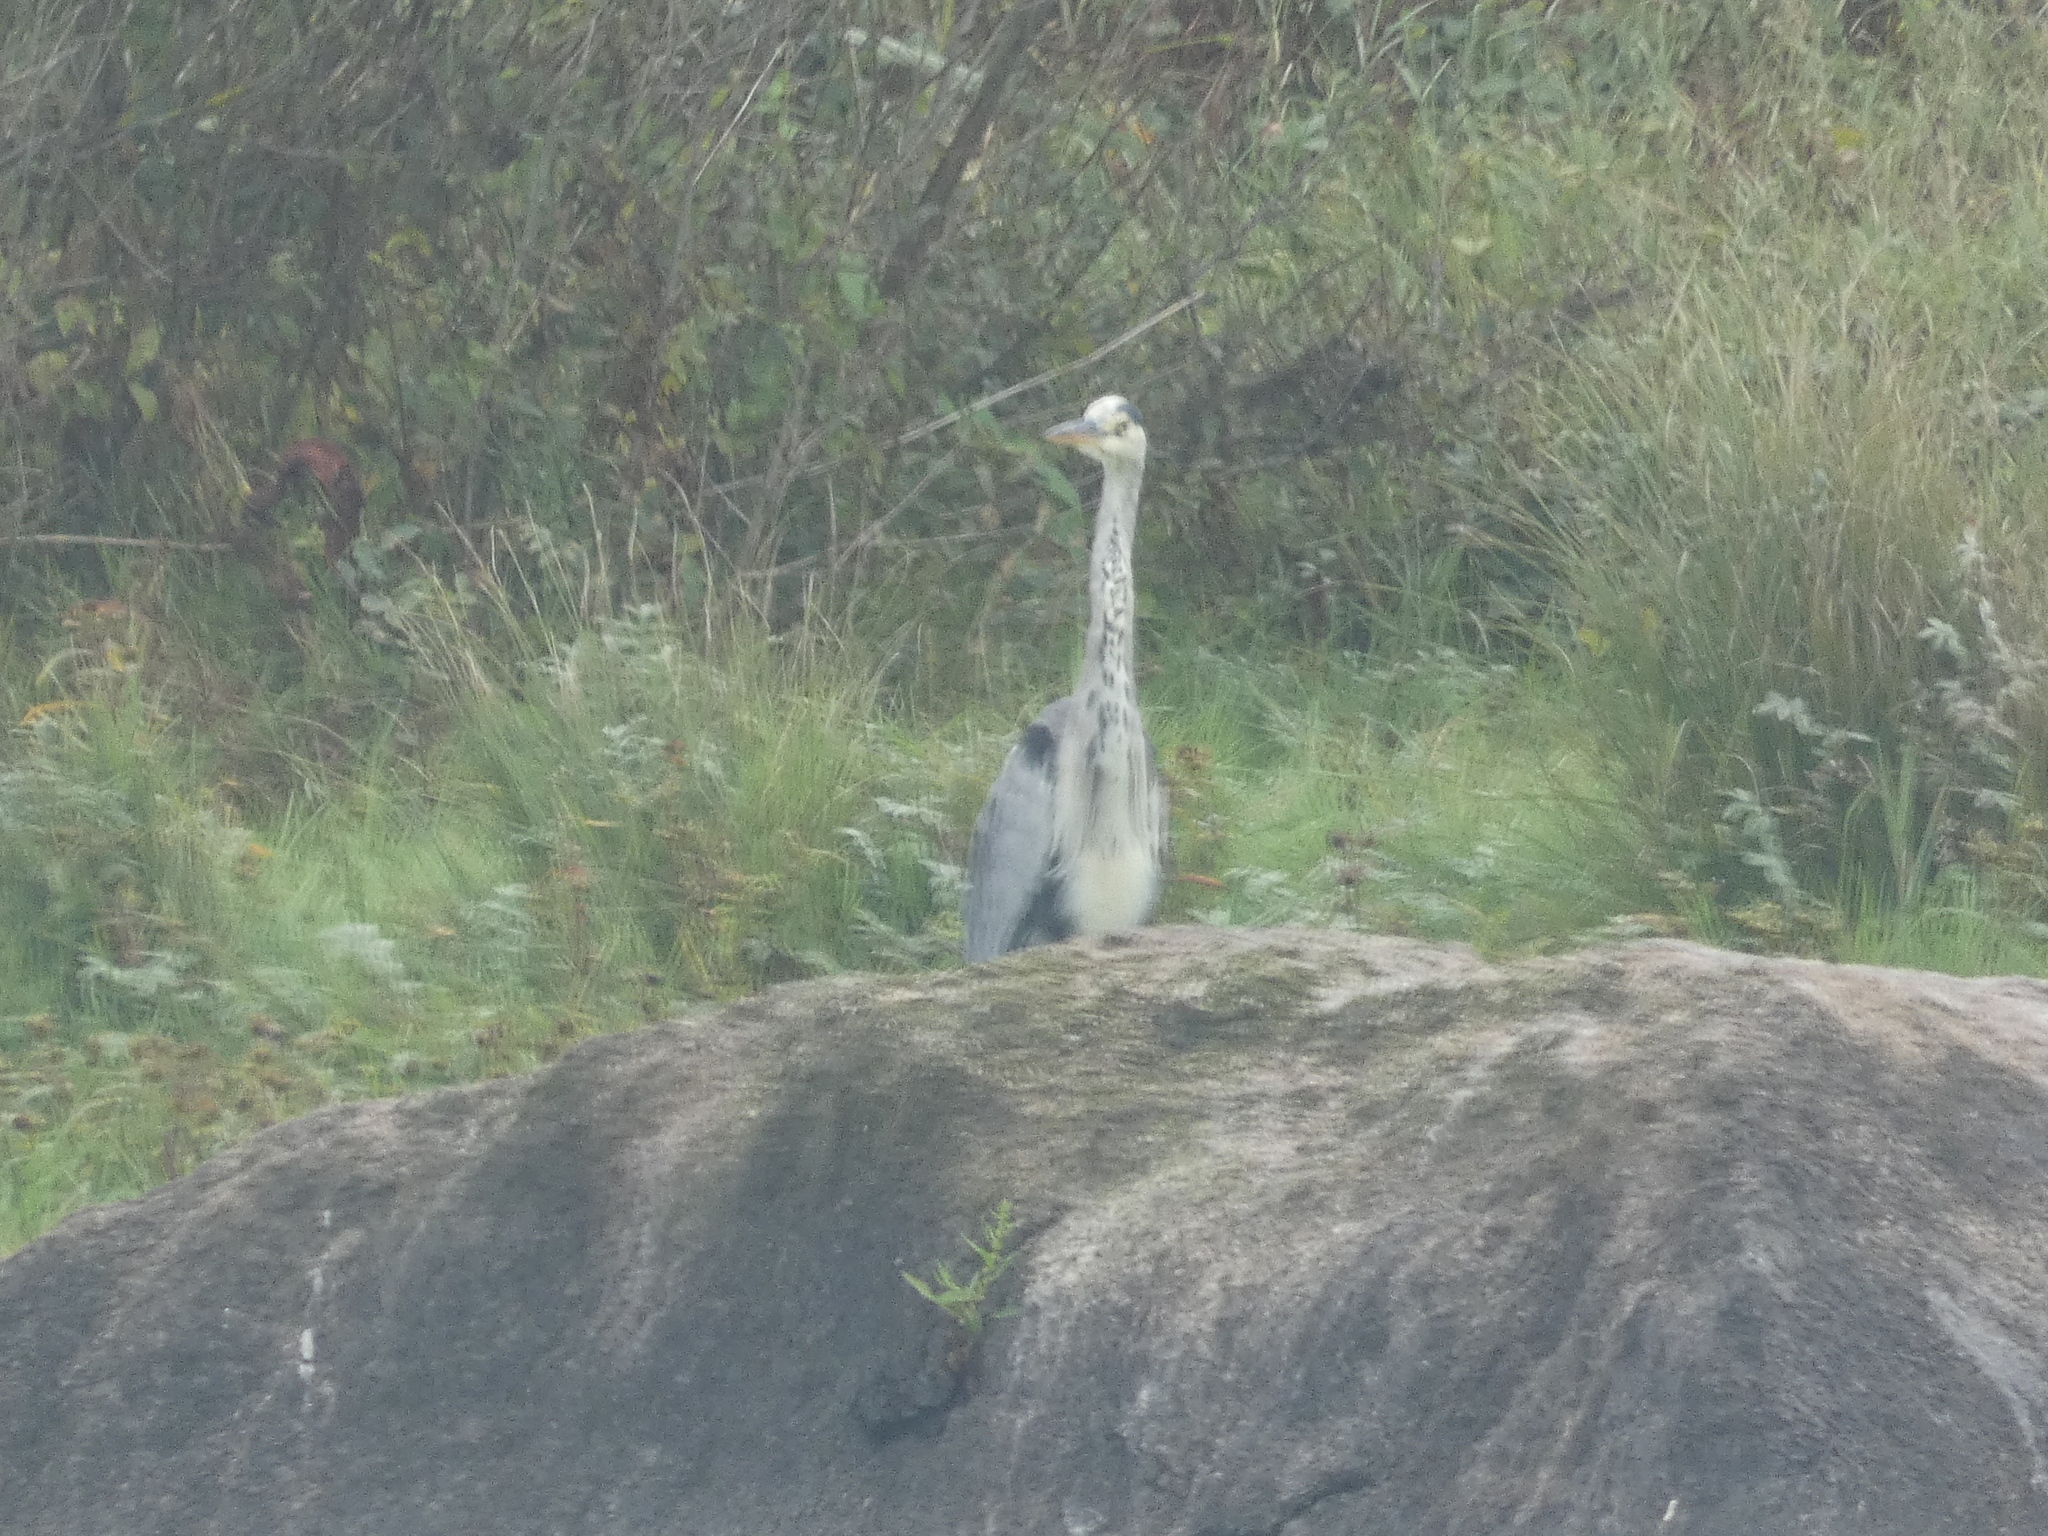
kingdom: Animalia
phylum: Chordata
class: Aves
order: Pelecaniformes
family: Ardeidae
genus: Ardea
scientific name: Ardea cinerea
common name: Grey heron
